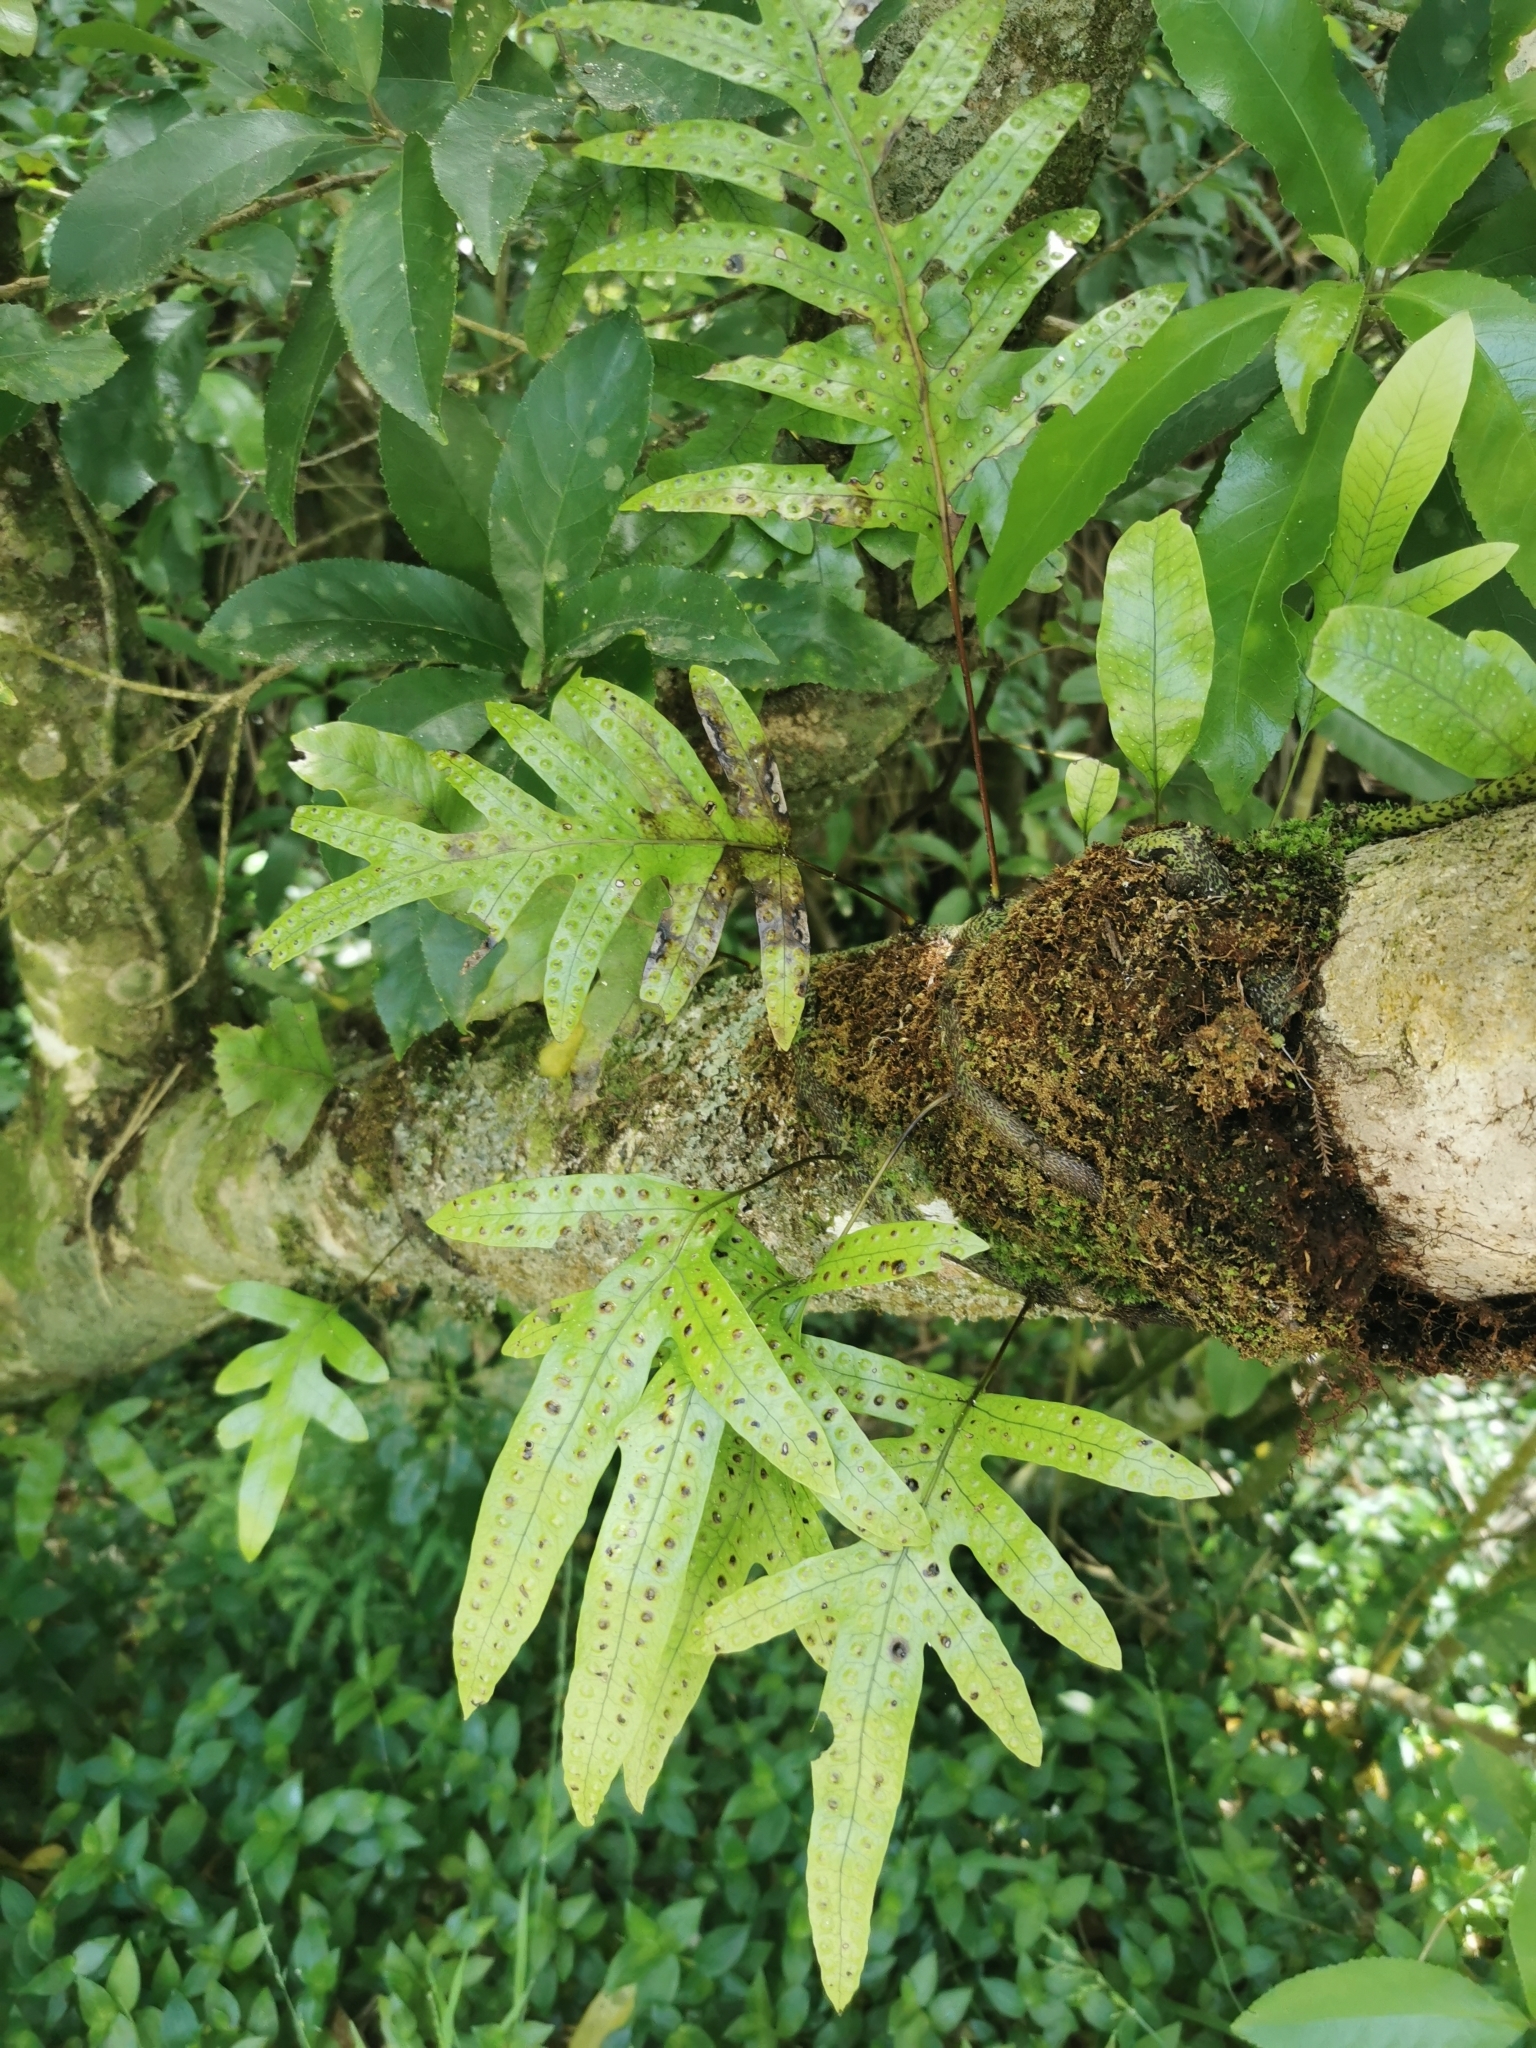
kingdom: Plantae
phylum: Tracheophyta
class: Polypodiopsida
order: Polypodiales
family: Polypodiaceae
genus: Lecanopteris
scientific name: Lecanopteris pustulata
